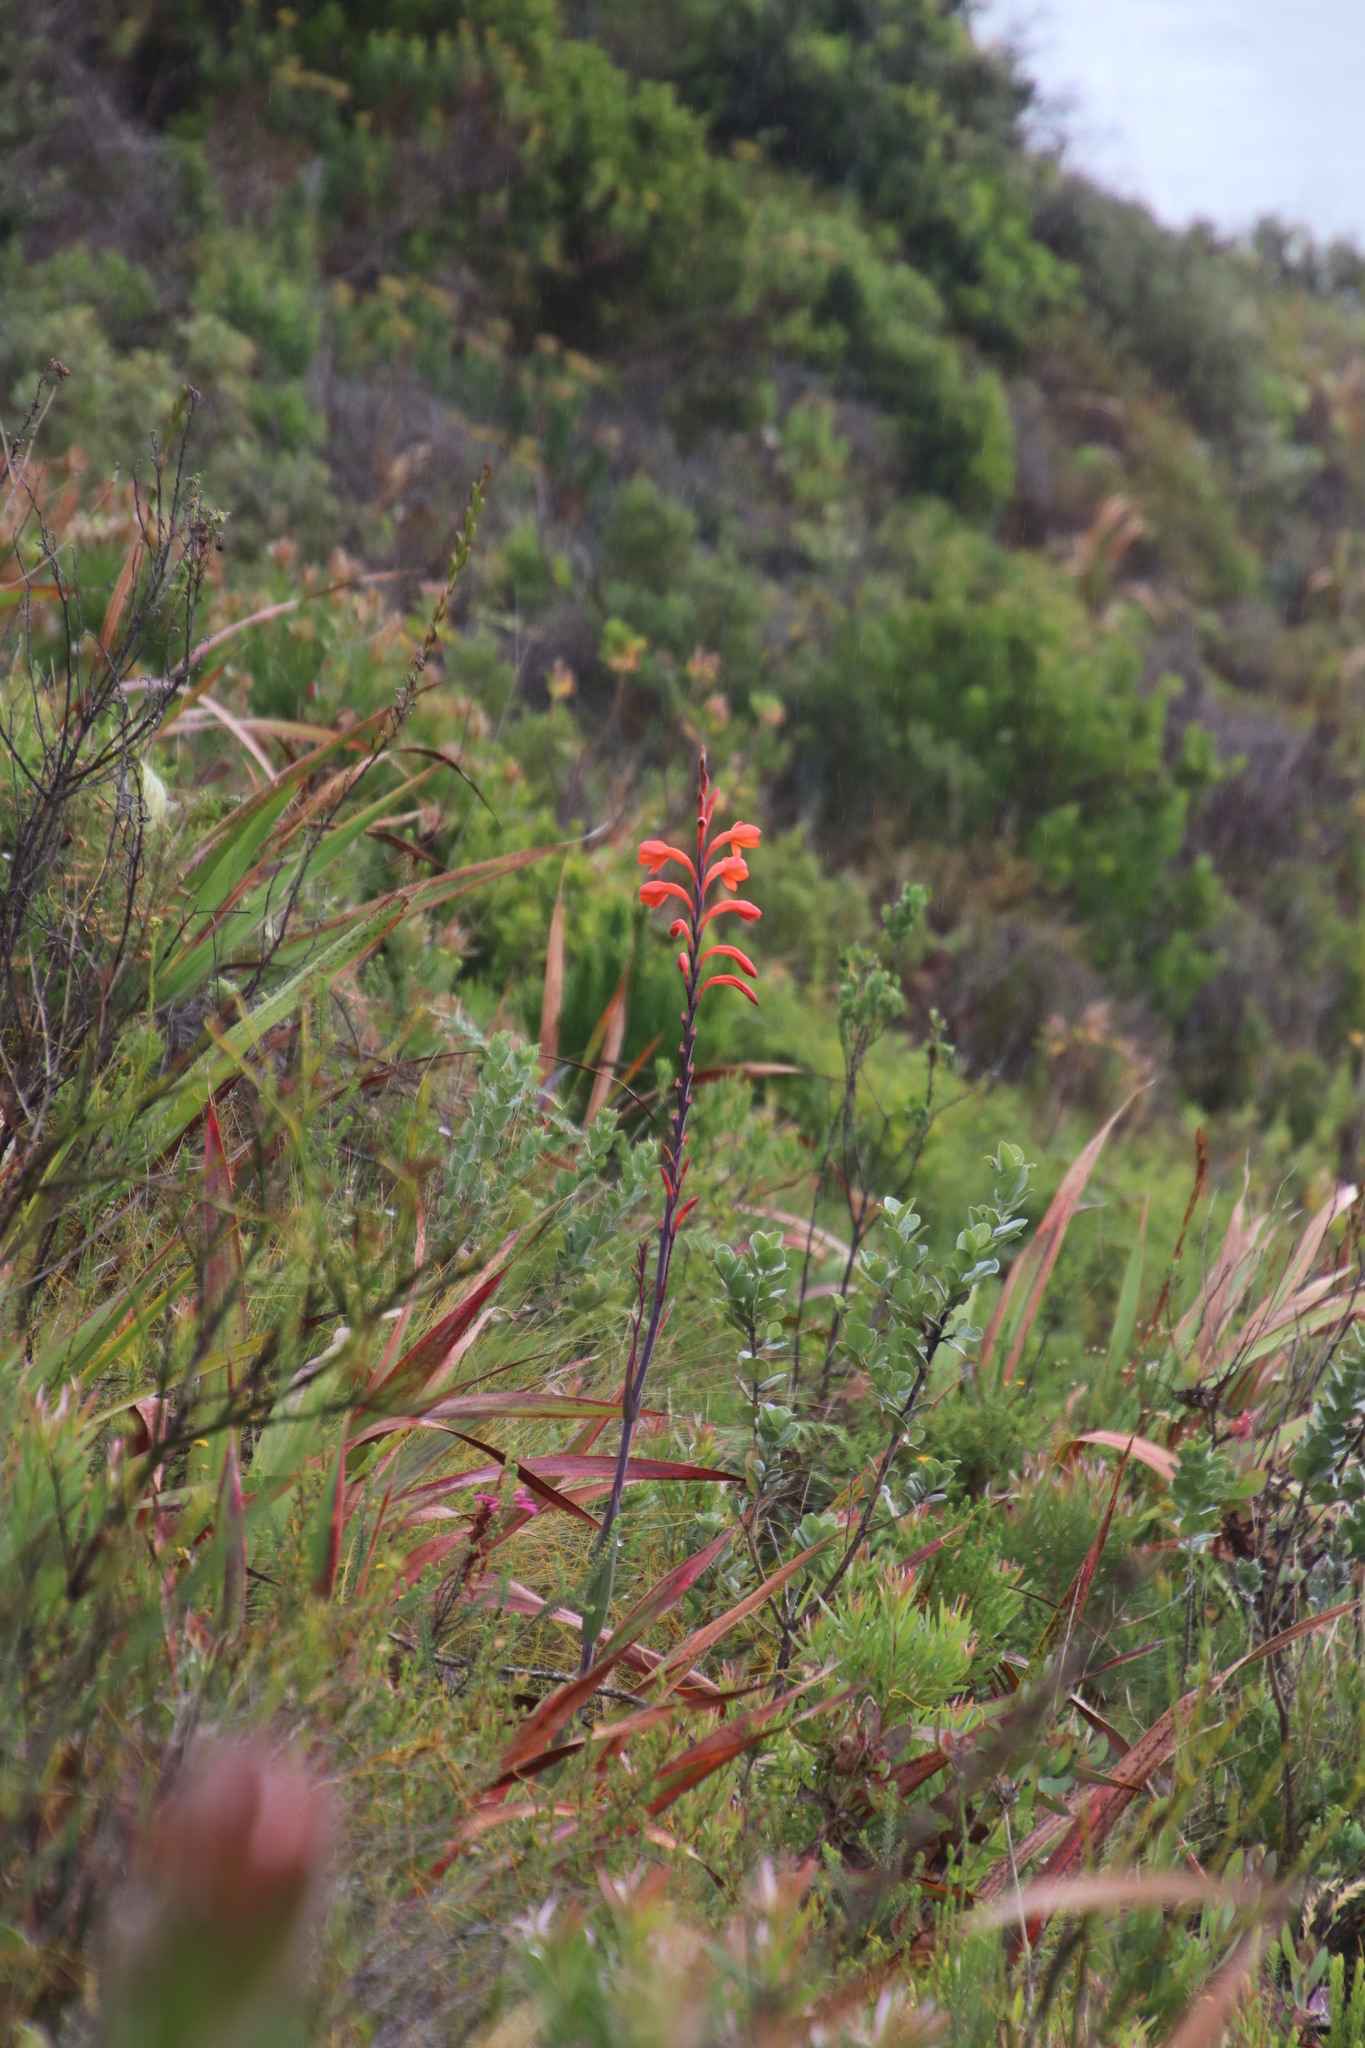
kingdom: Plantae
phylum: Tracheophyta
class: Liliopsida
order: Asparagales
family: Iridaceae
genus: Watsonia
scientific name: Watsonia tabularis
